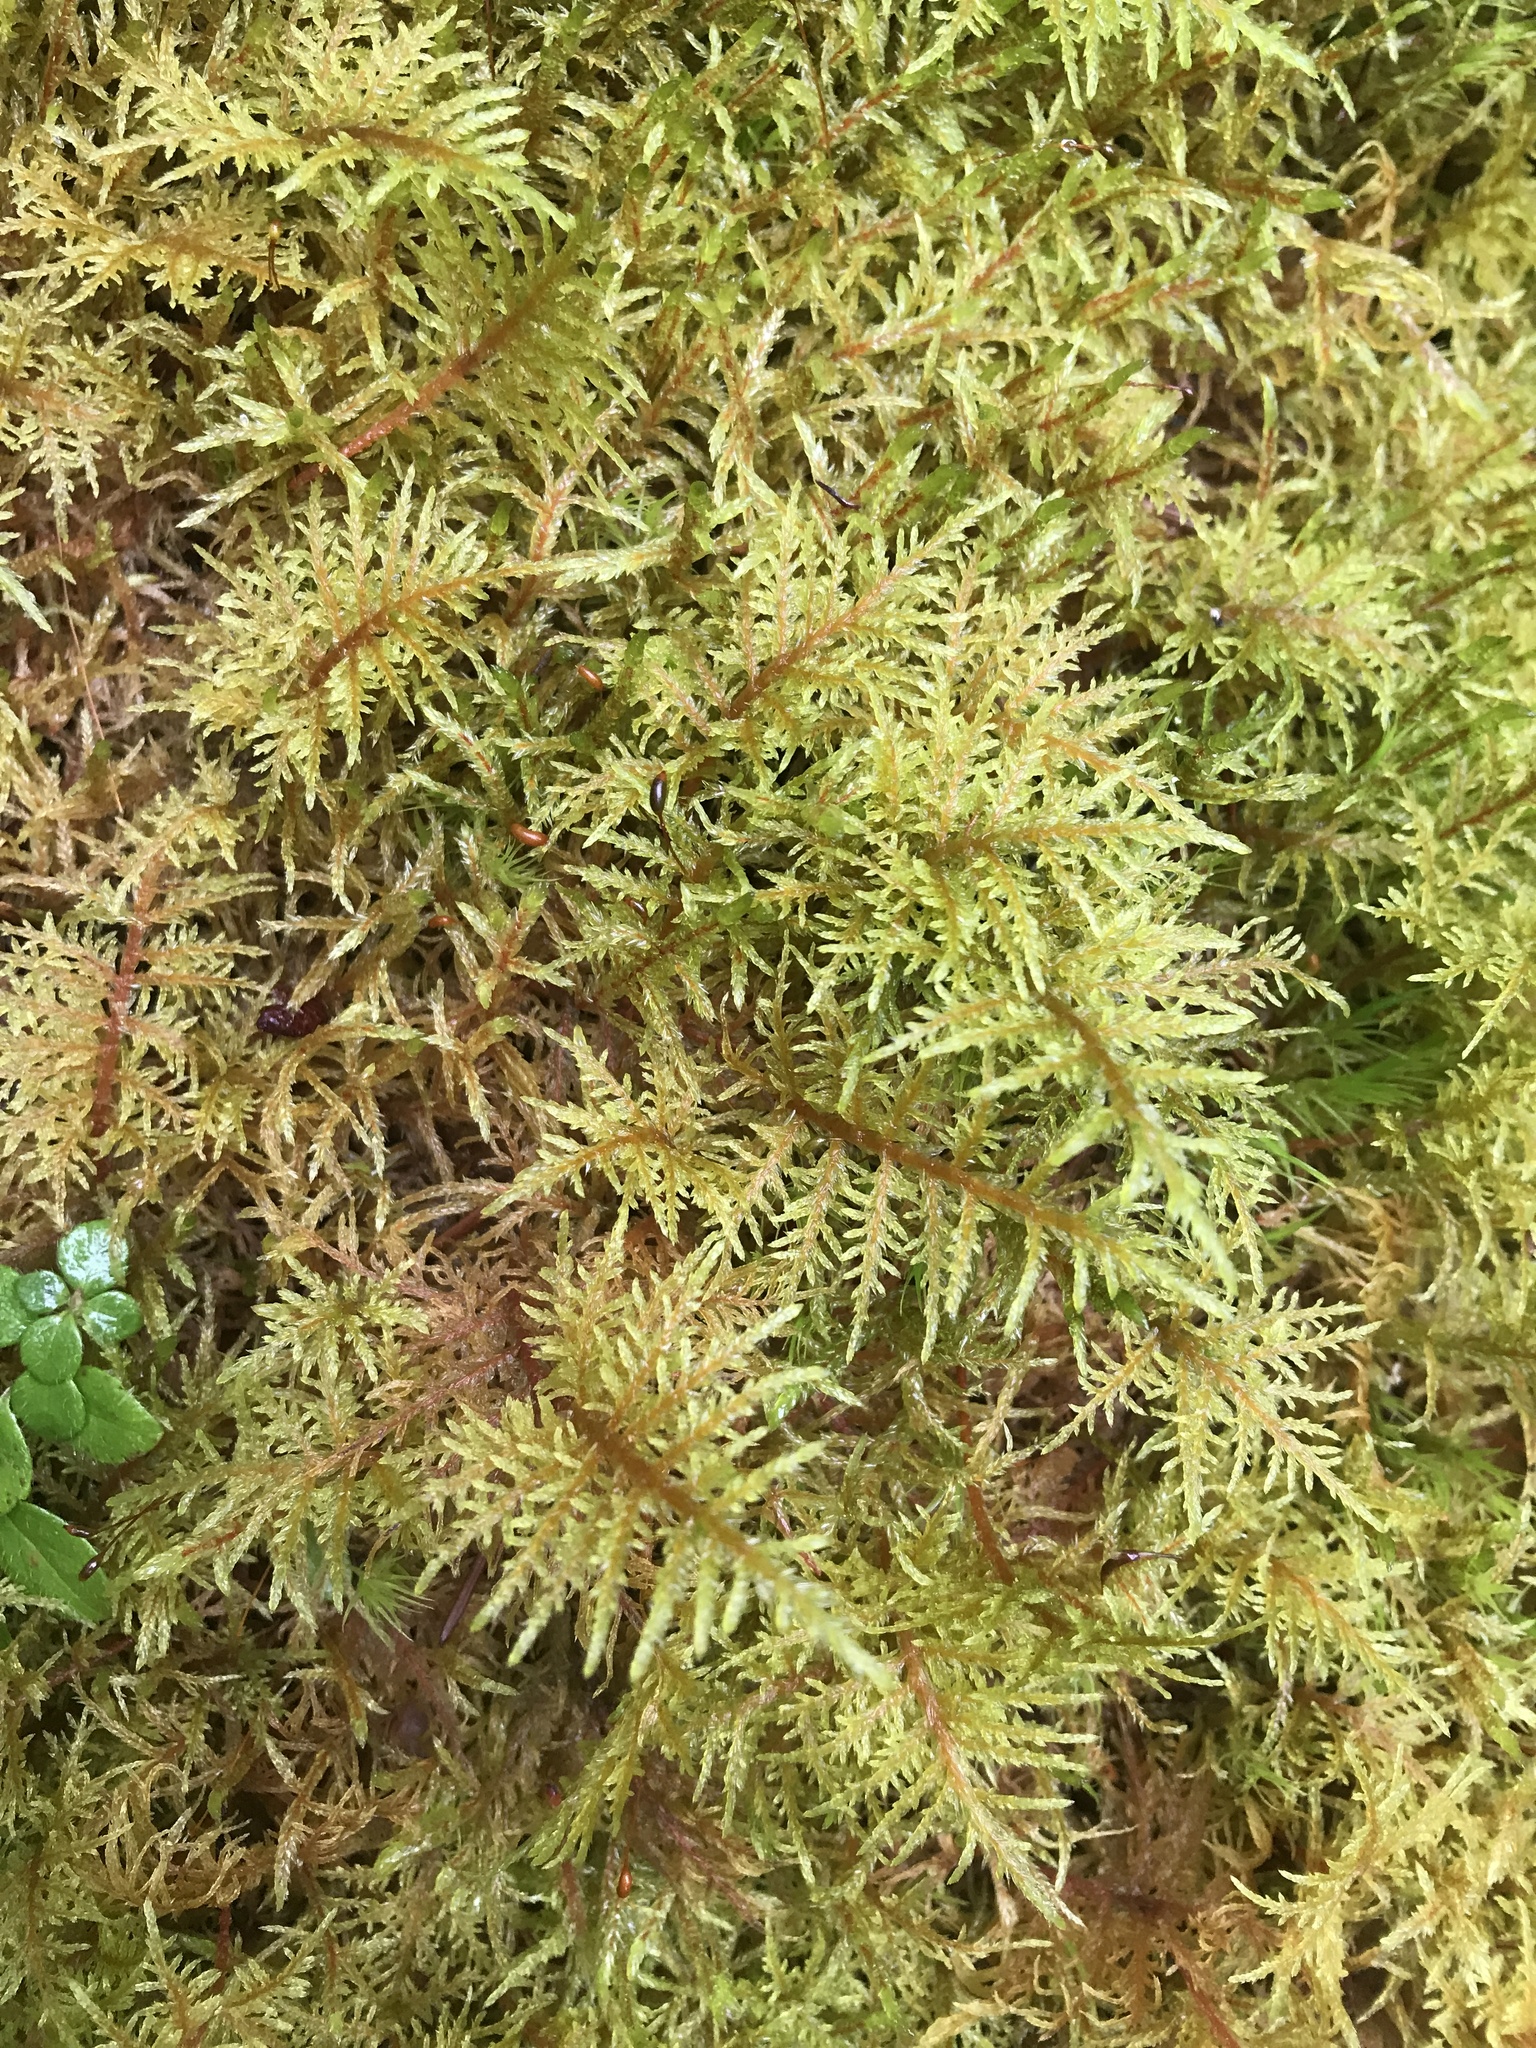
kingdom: Plantae
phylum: Bryophyta
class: Bryopsida
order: Hypnales
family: Hylocomiaceae
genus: Hylocomium
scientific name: Hylocomium splendens
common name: Stairstep moss
